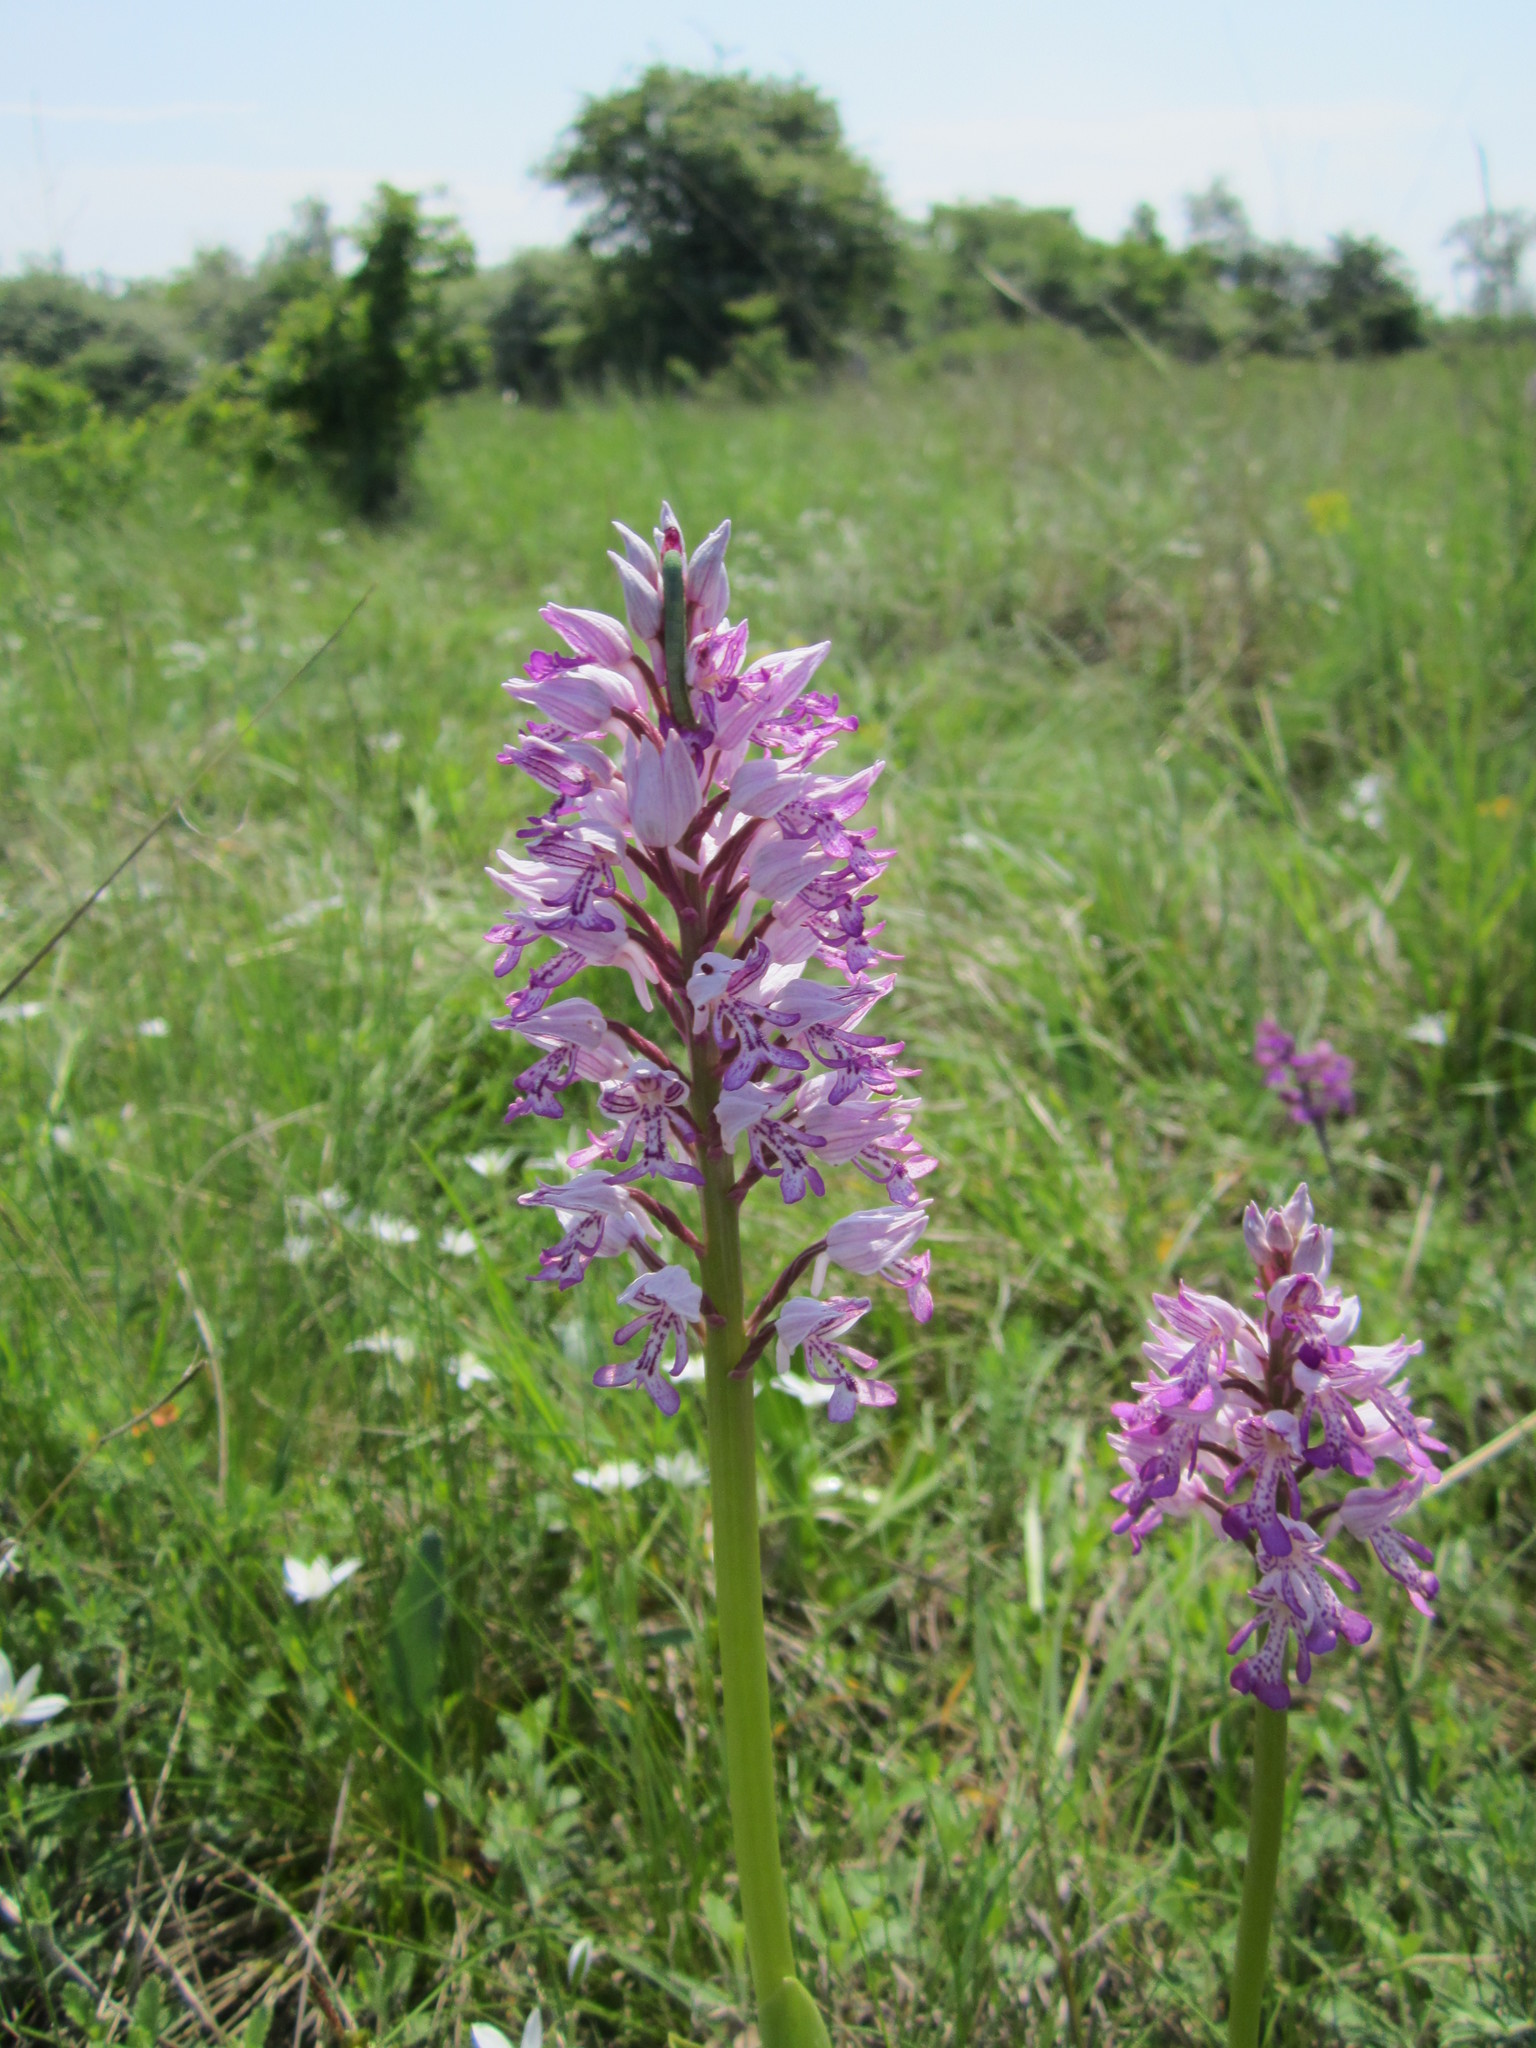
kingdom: Plantae
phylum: Tracheophyta
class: Liliopsida
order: Asparagales
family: Orchidaceae
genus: Orchis
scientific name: Orchis militaris
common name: Military orchid
